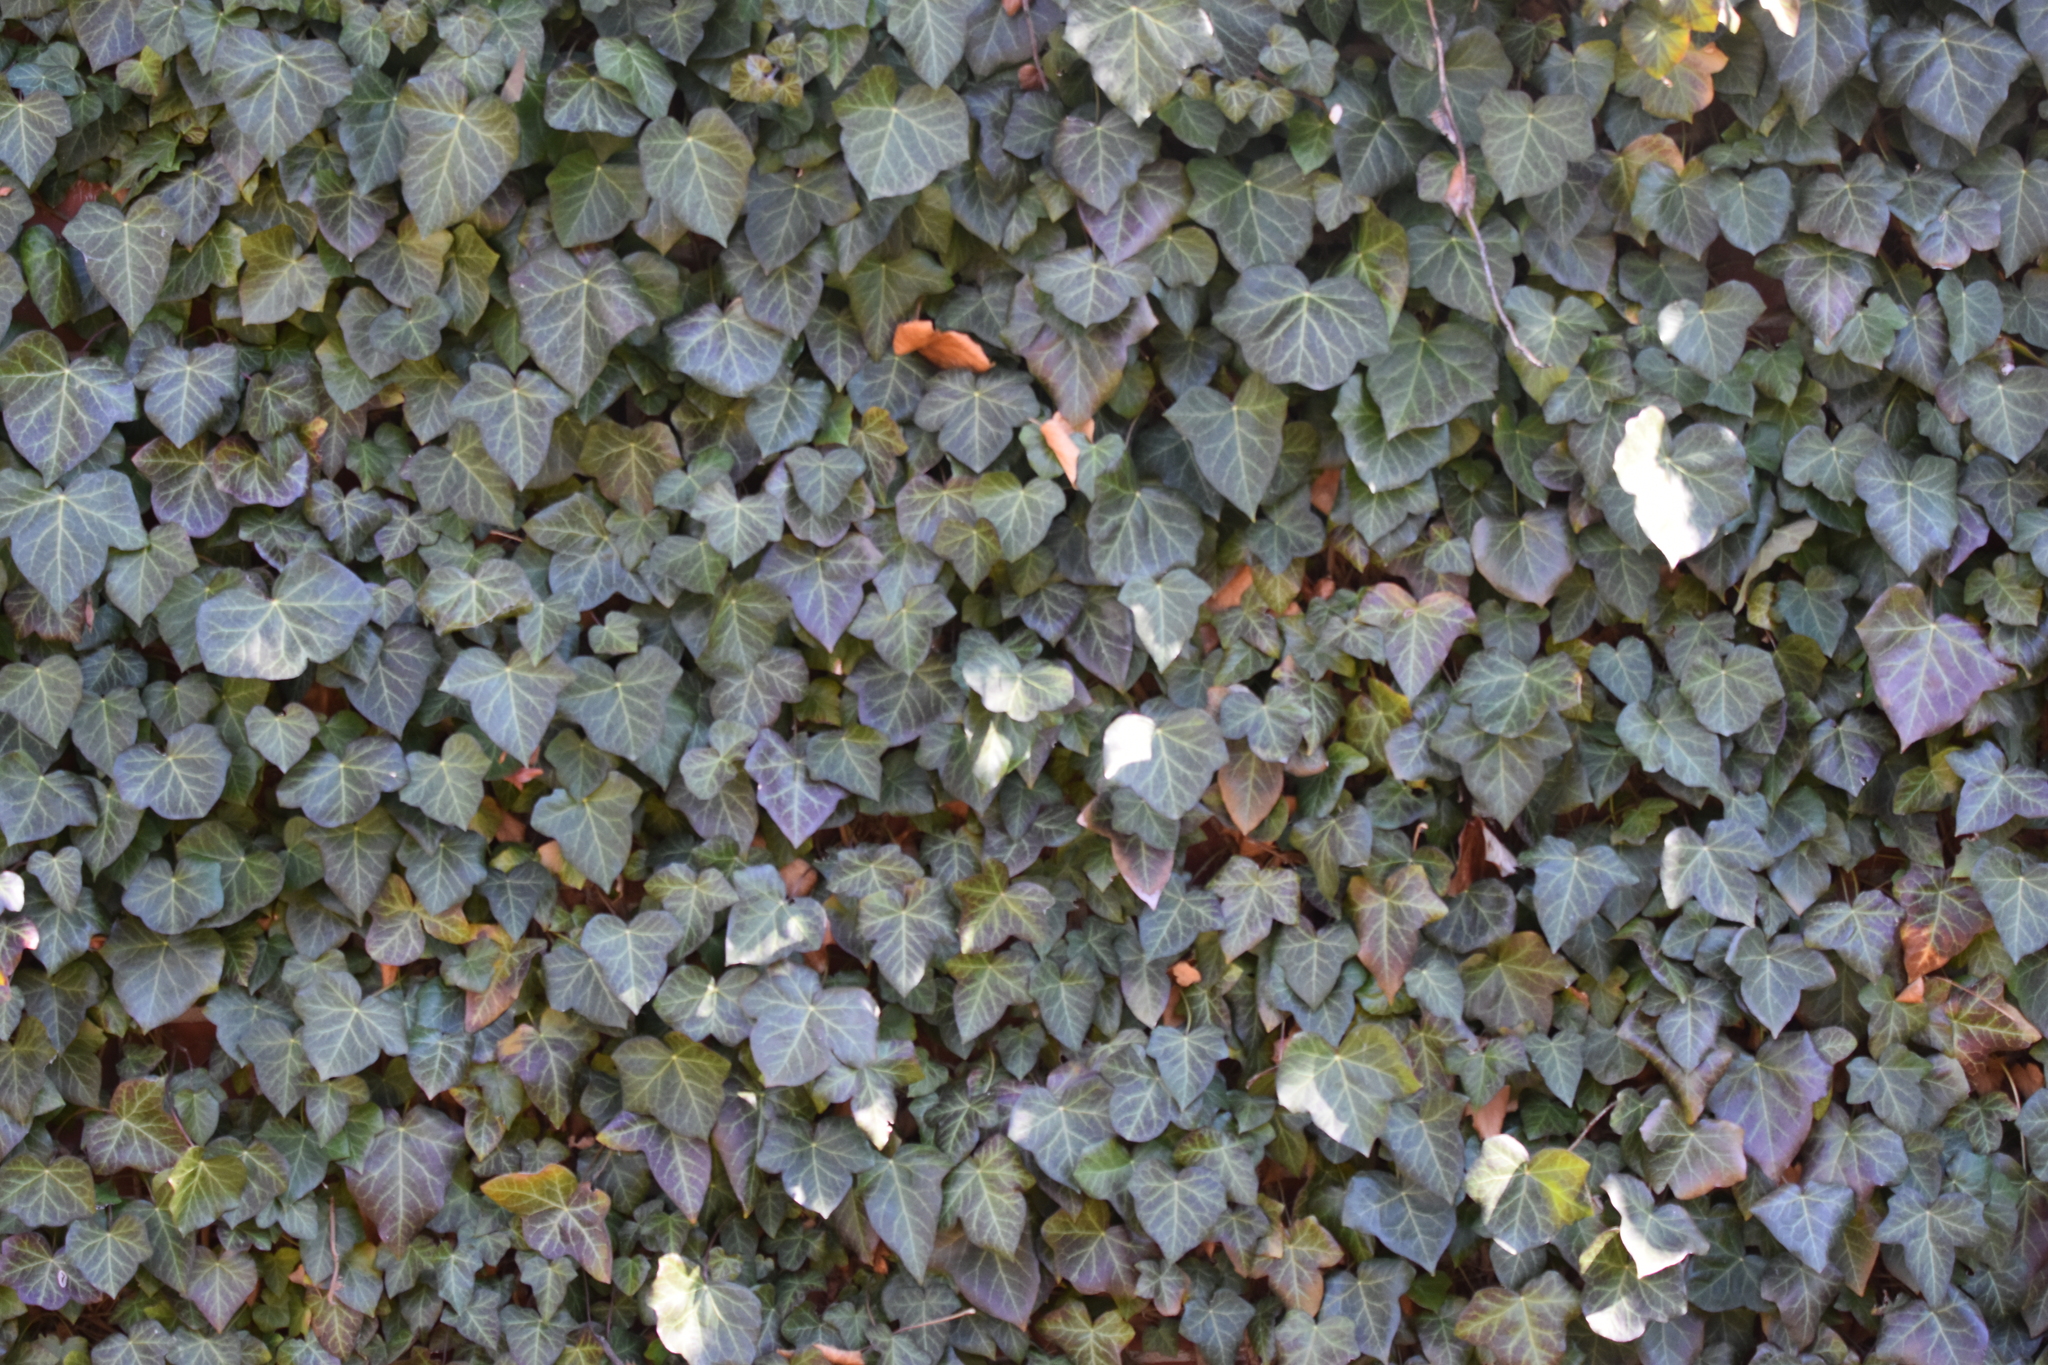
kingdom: Plantae
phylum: Tracheophyta
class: Magnoliopsida
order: Apiales
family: Araliaceae
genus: Hedera
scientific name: Hedera helix
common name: Ivy
